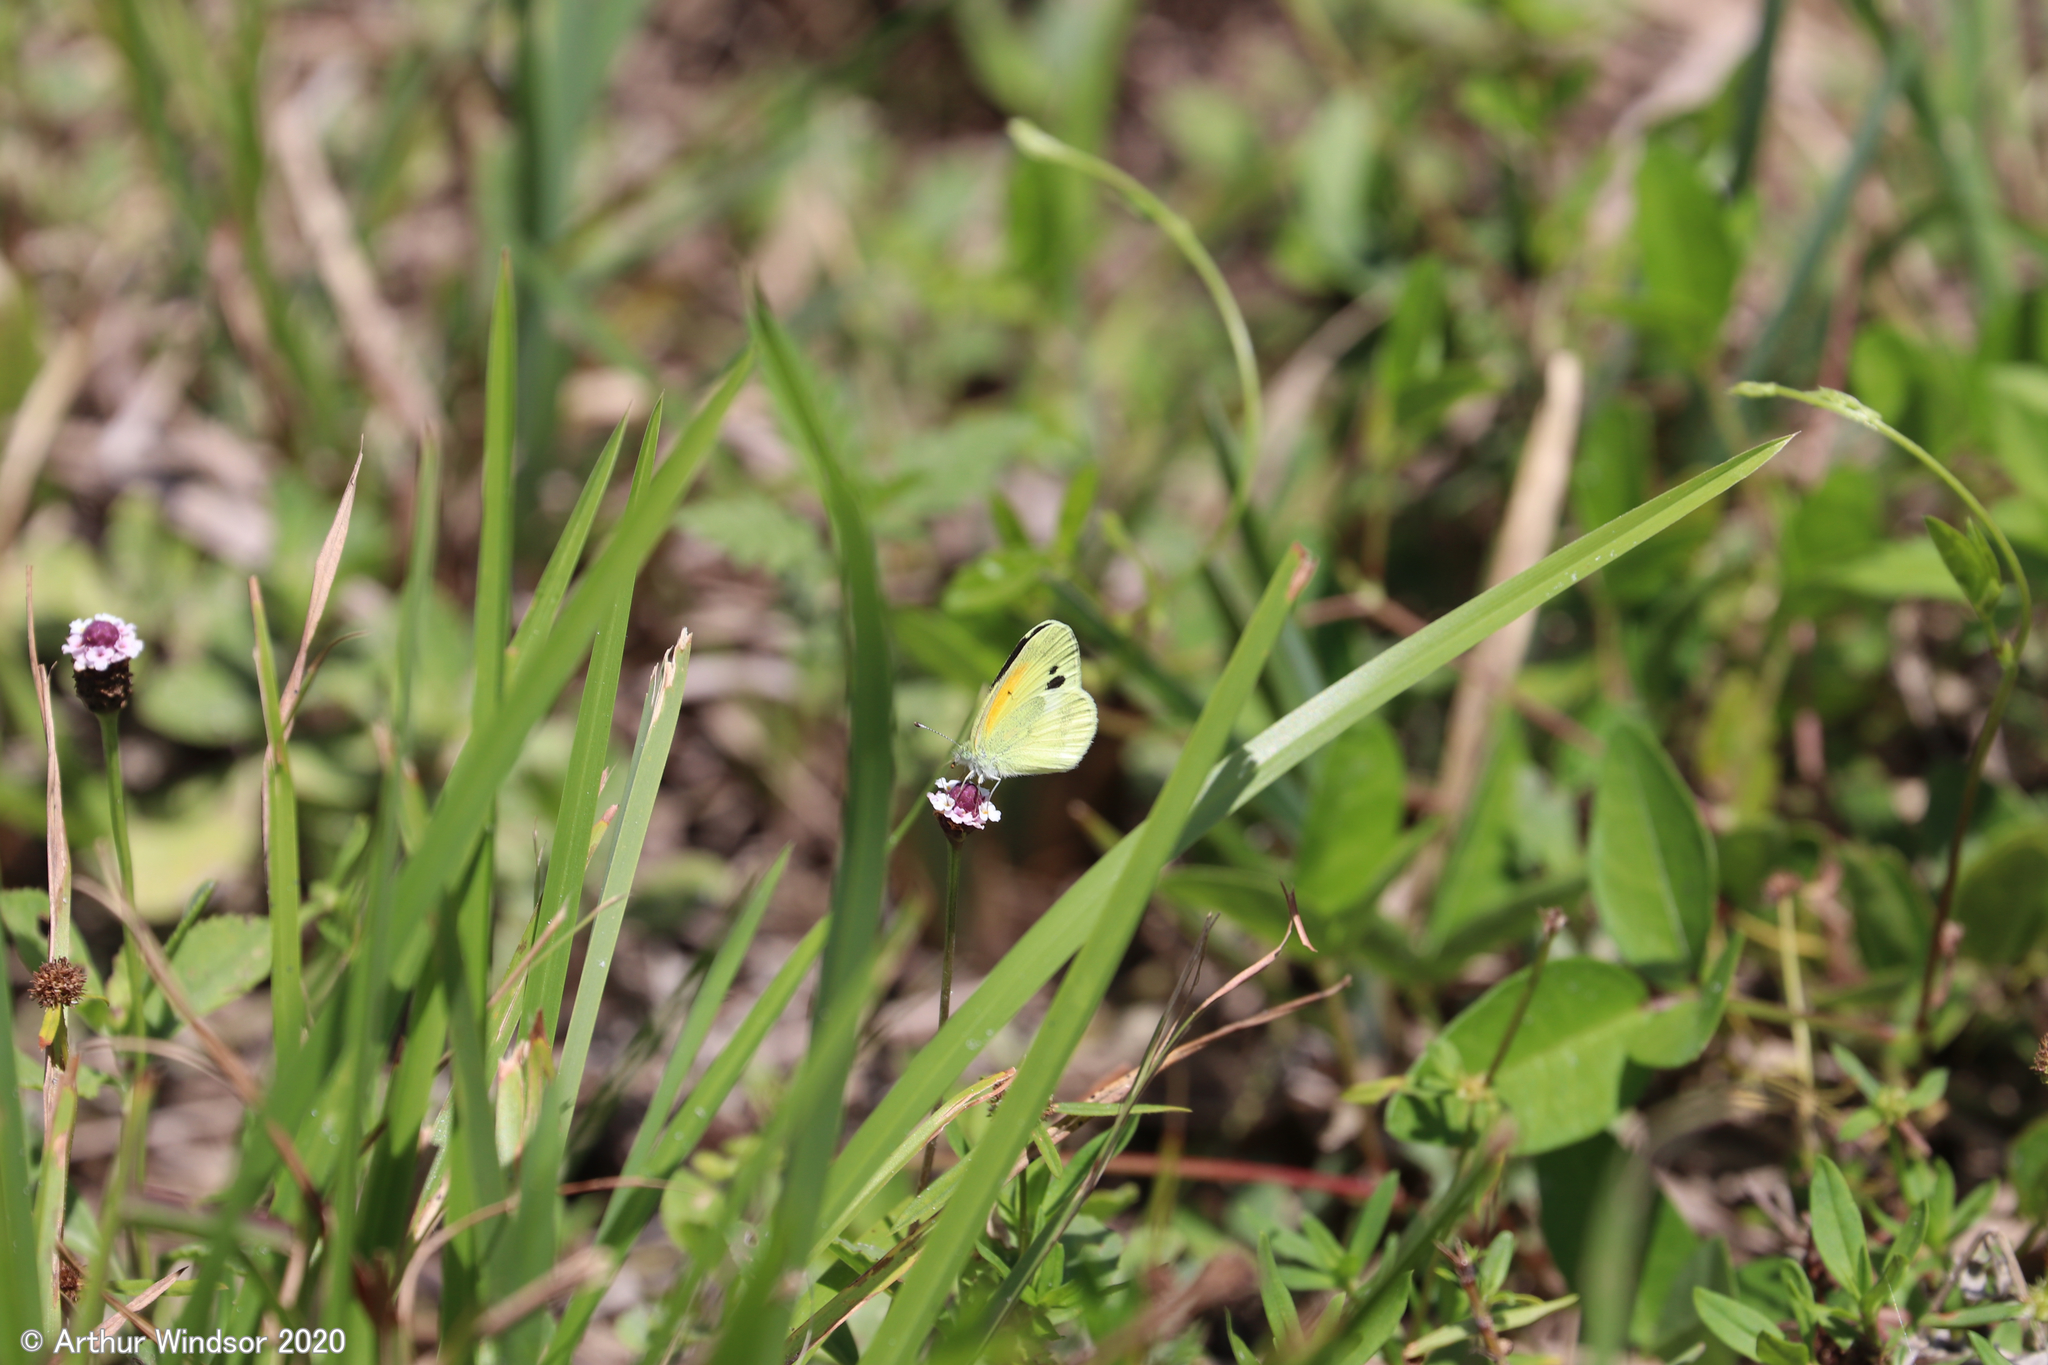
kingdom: Animalia
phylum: Arthropoda
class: Insecta
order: Lepidoptera
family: Pieridae
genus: Nathalis
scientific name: Nathalis iole
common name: Dainty sulphur
